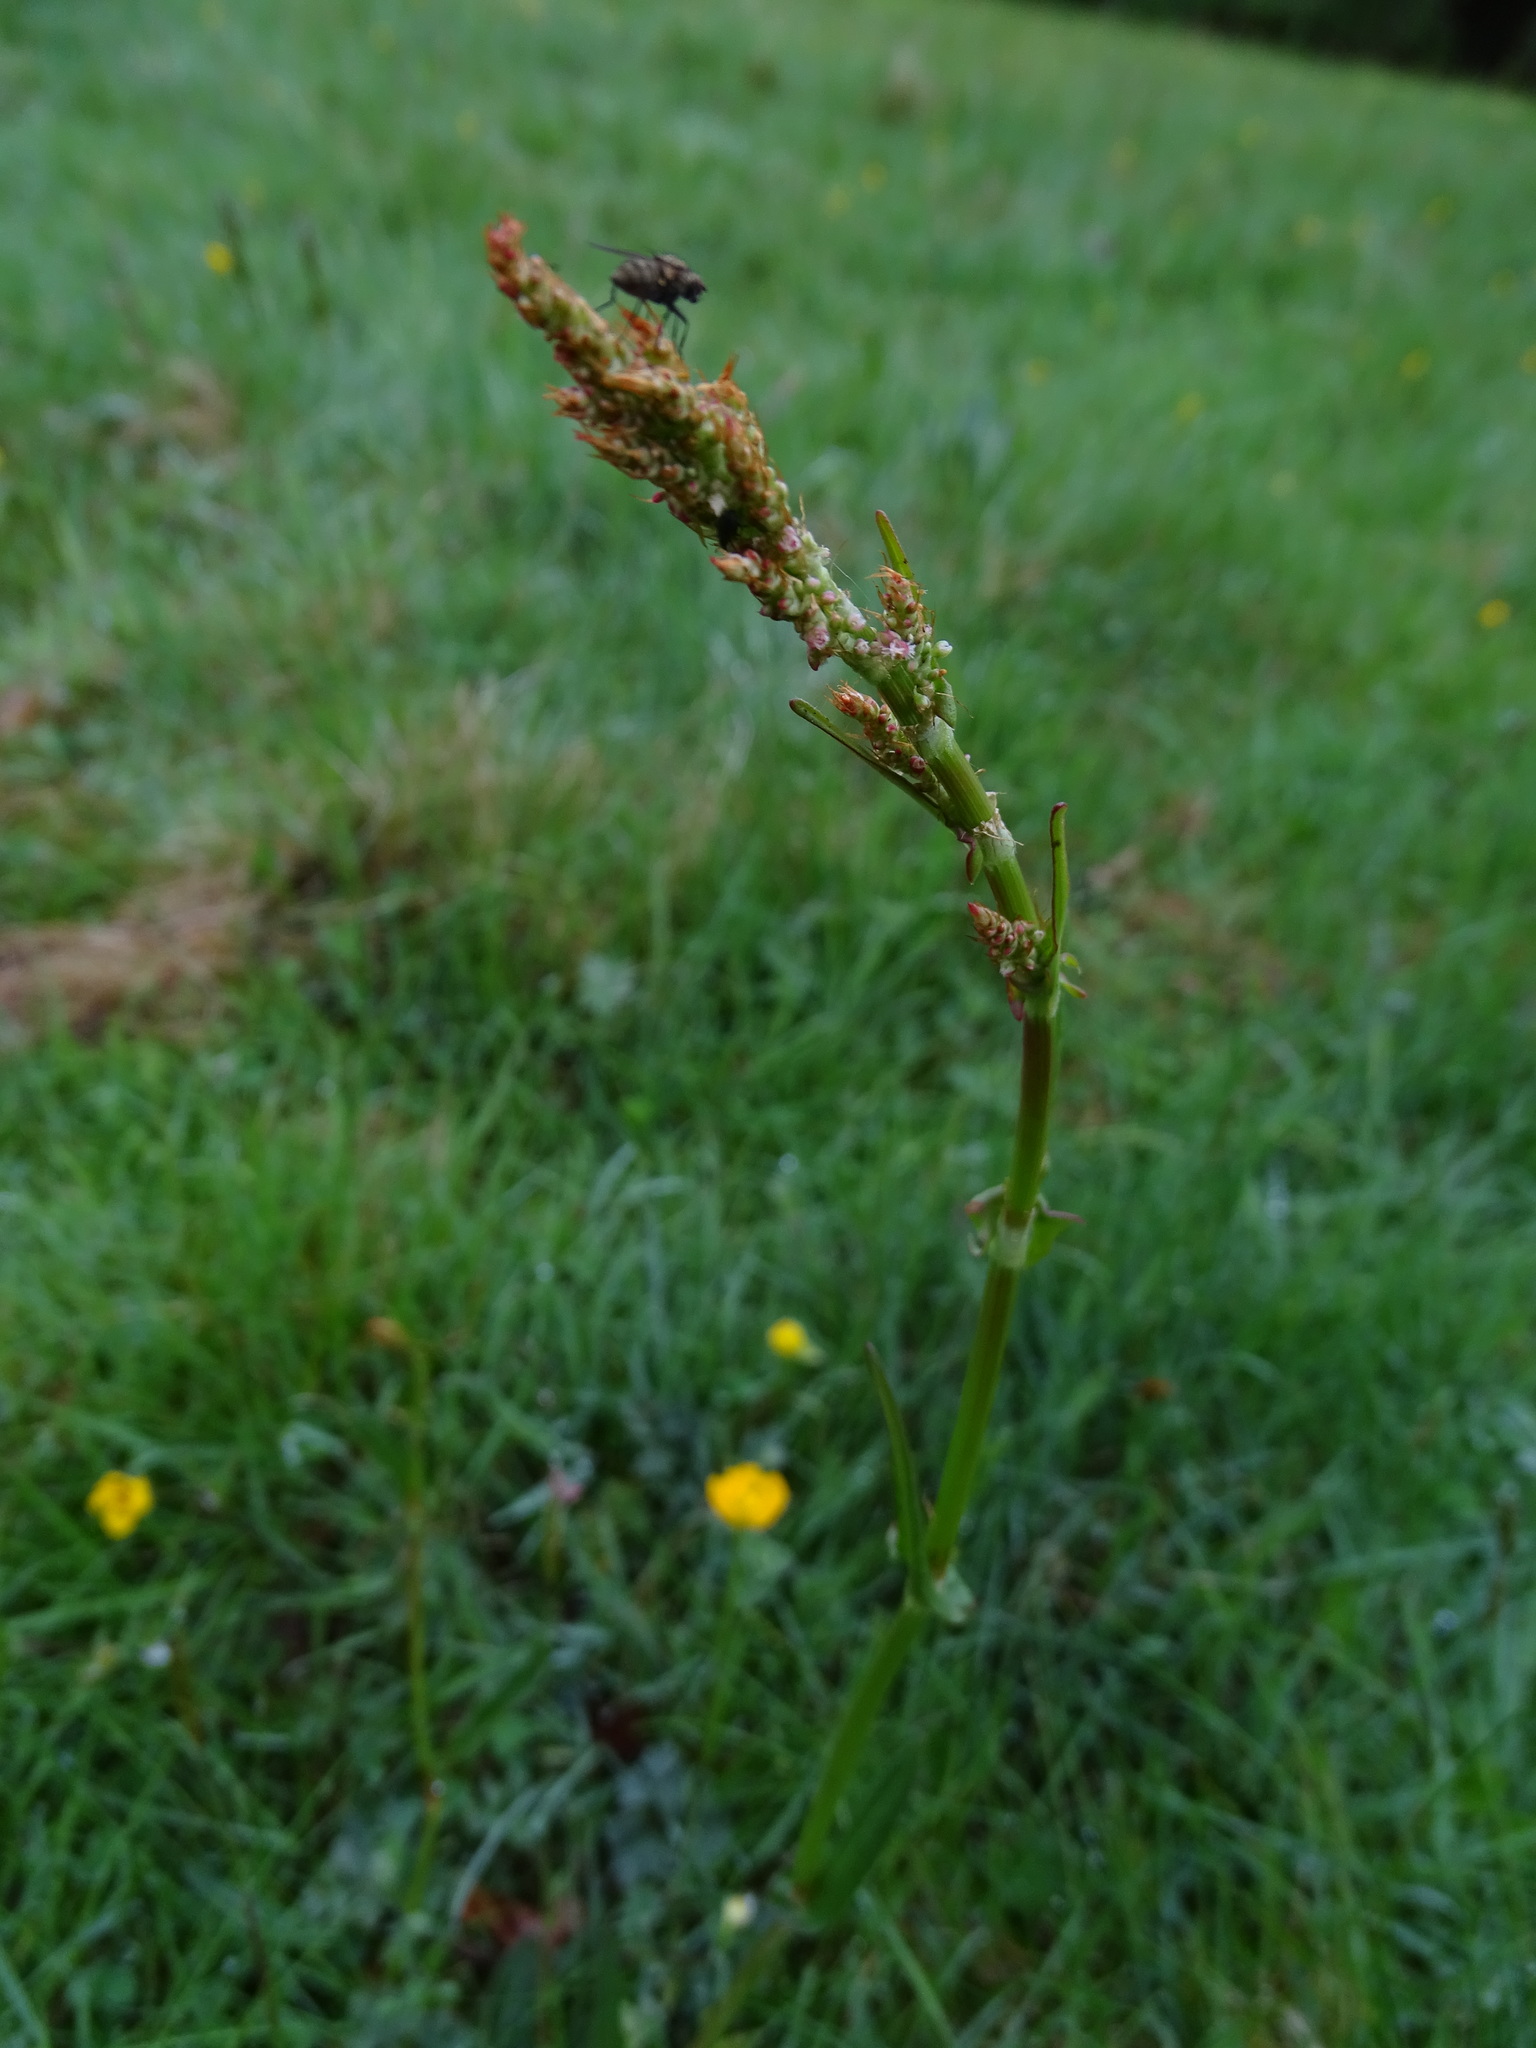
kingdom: Plantae
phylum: Tracheophyta
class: Magnoliopsida
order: Caryophyllales
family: Polygonaceae
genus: Rumex
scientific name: Rumex acetosa
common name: Garden sorrel
